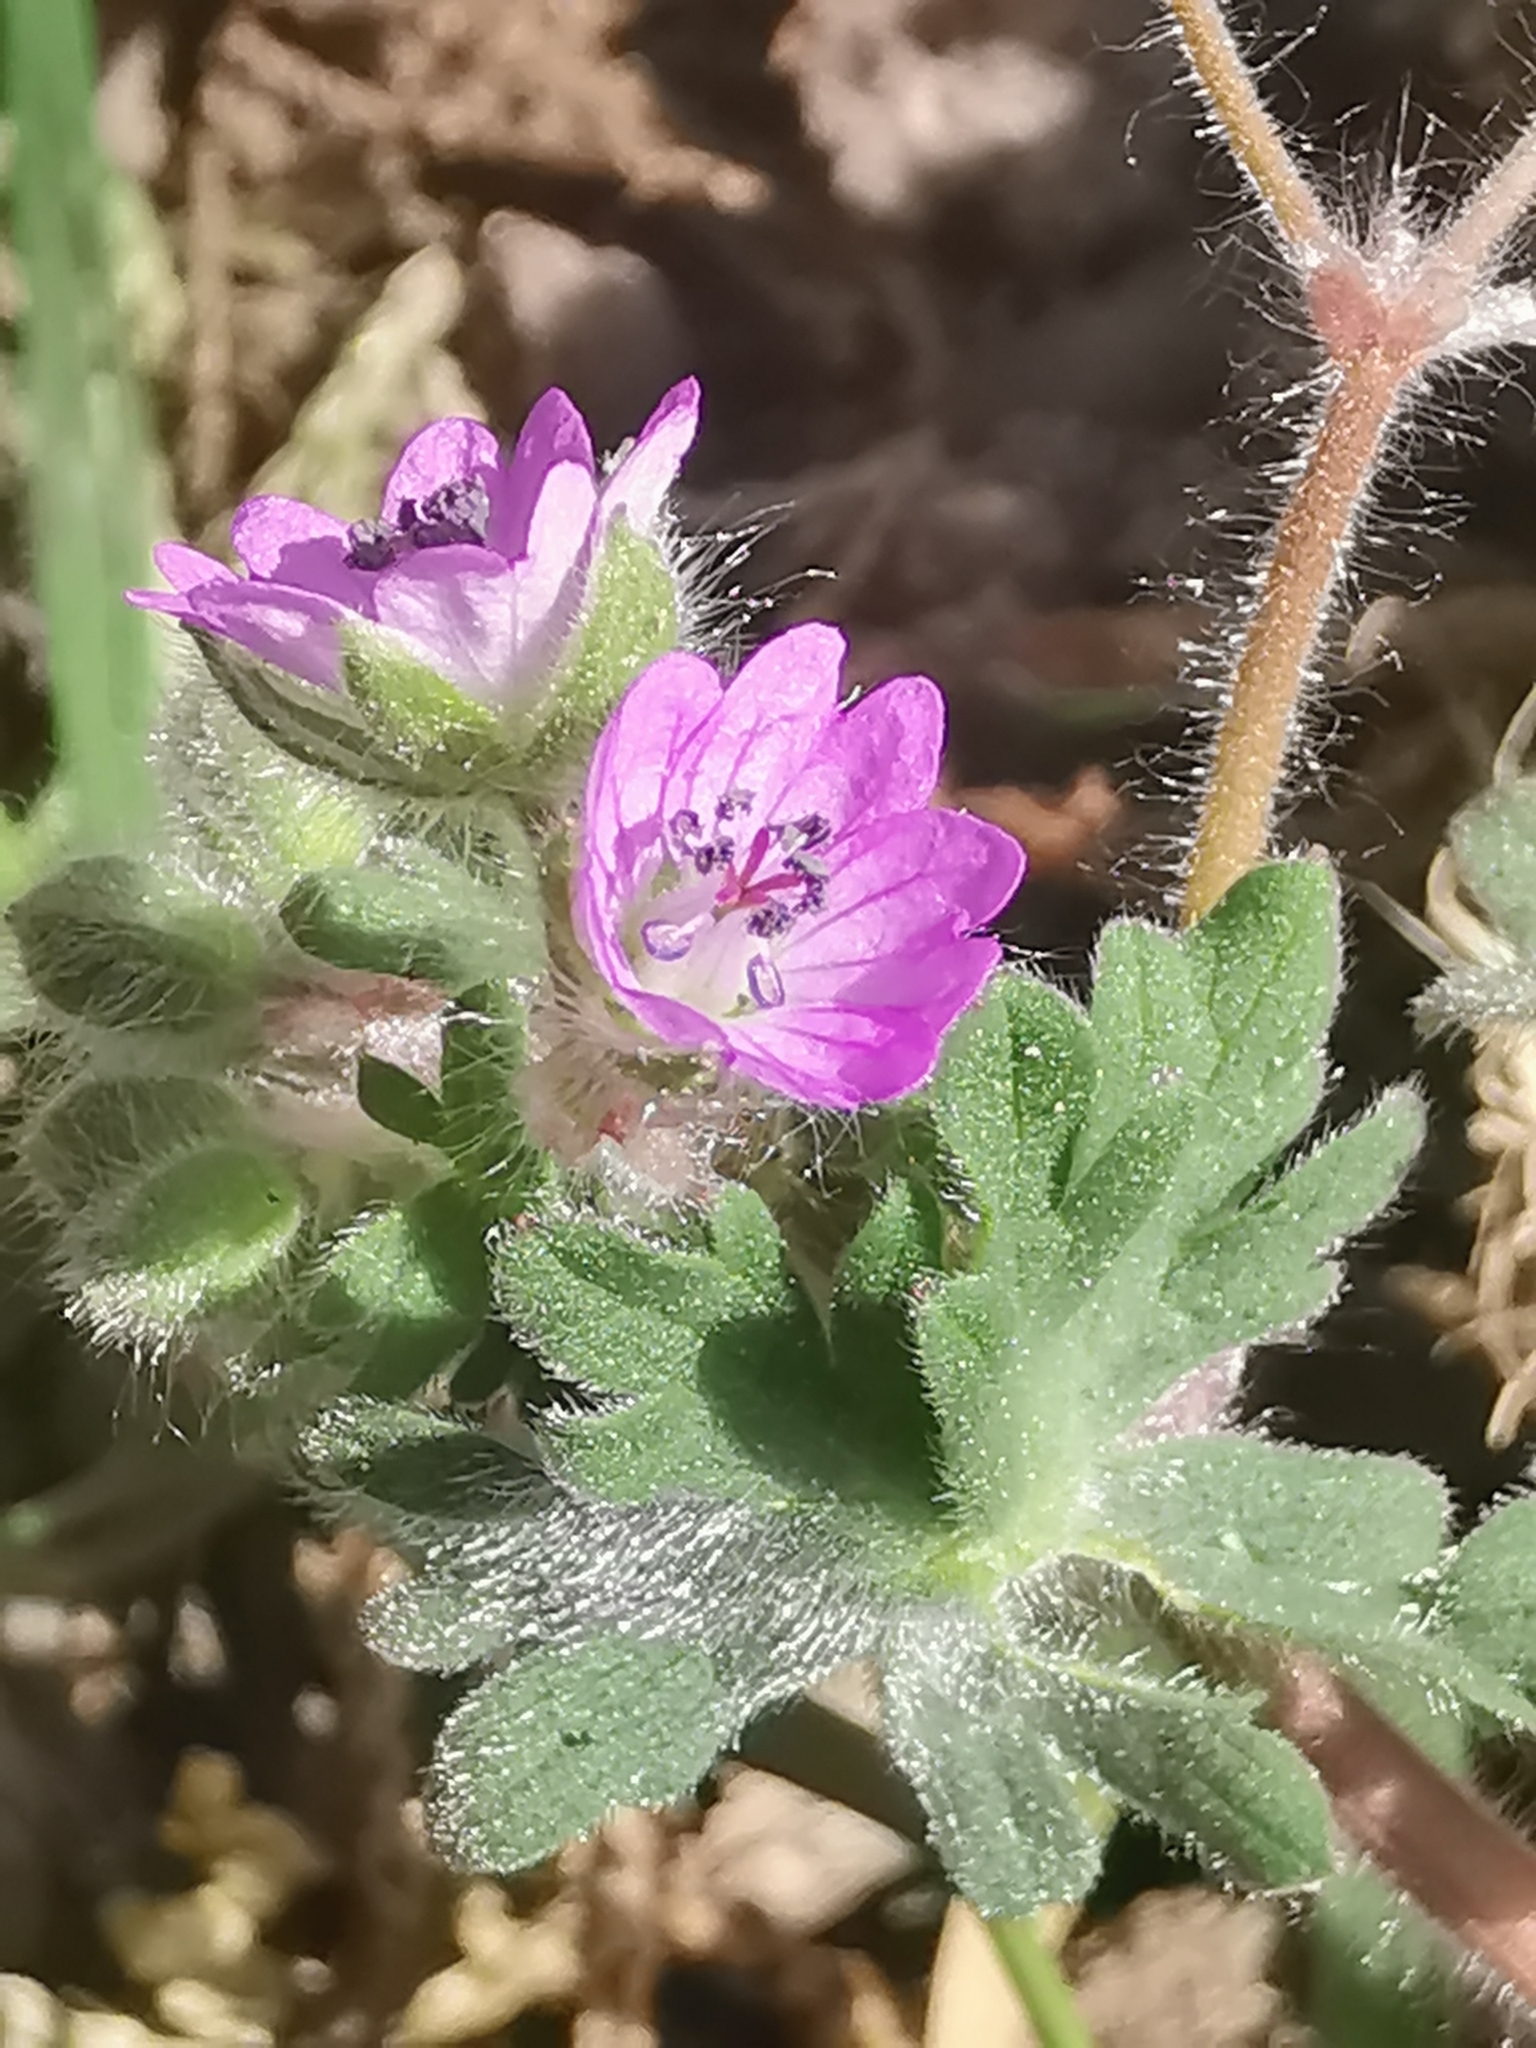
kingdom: Plantae
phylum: Tracheophyta
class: Magnoliopsida
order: Geraniales
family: Geraniaceae
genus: Geranium
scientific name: Geranium molle
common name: Dove's-foot crane's-bill
